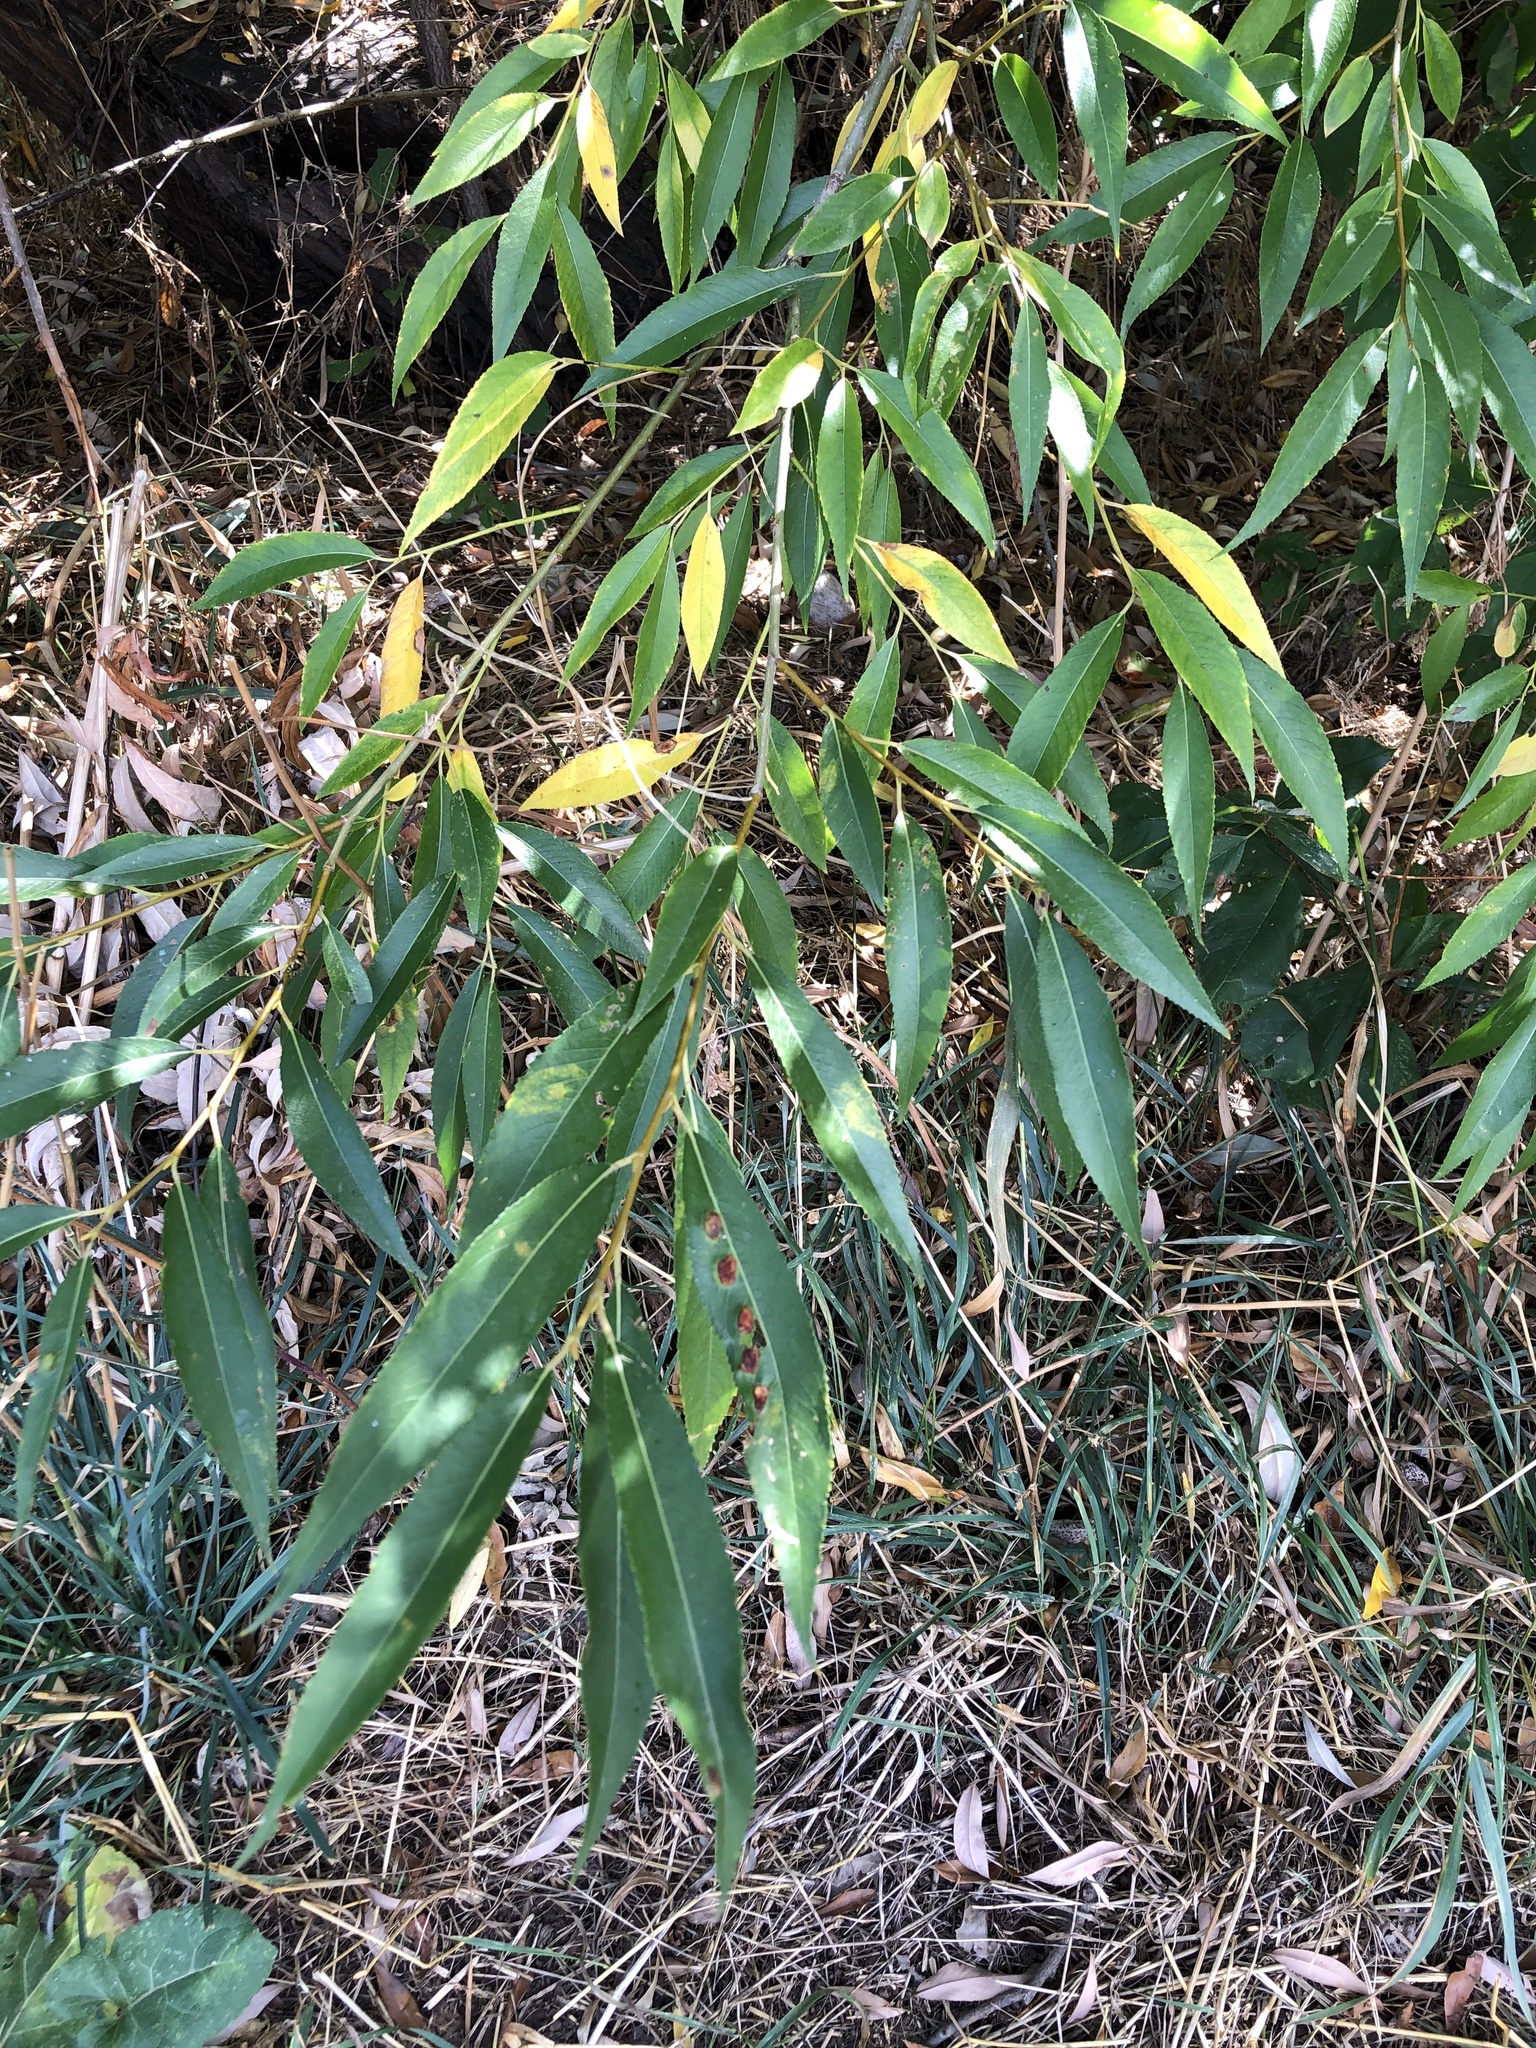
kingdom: Animalia
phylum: Arthropoda
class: Insecta
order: Hymenoptera
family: Tenthredinidae
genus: Pontania
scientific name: Pontania proxima
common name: Common sawfly
